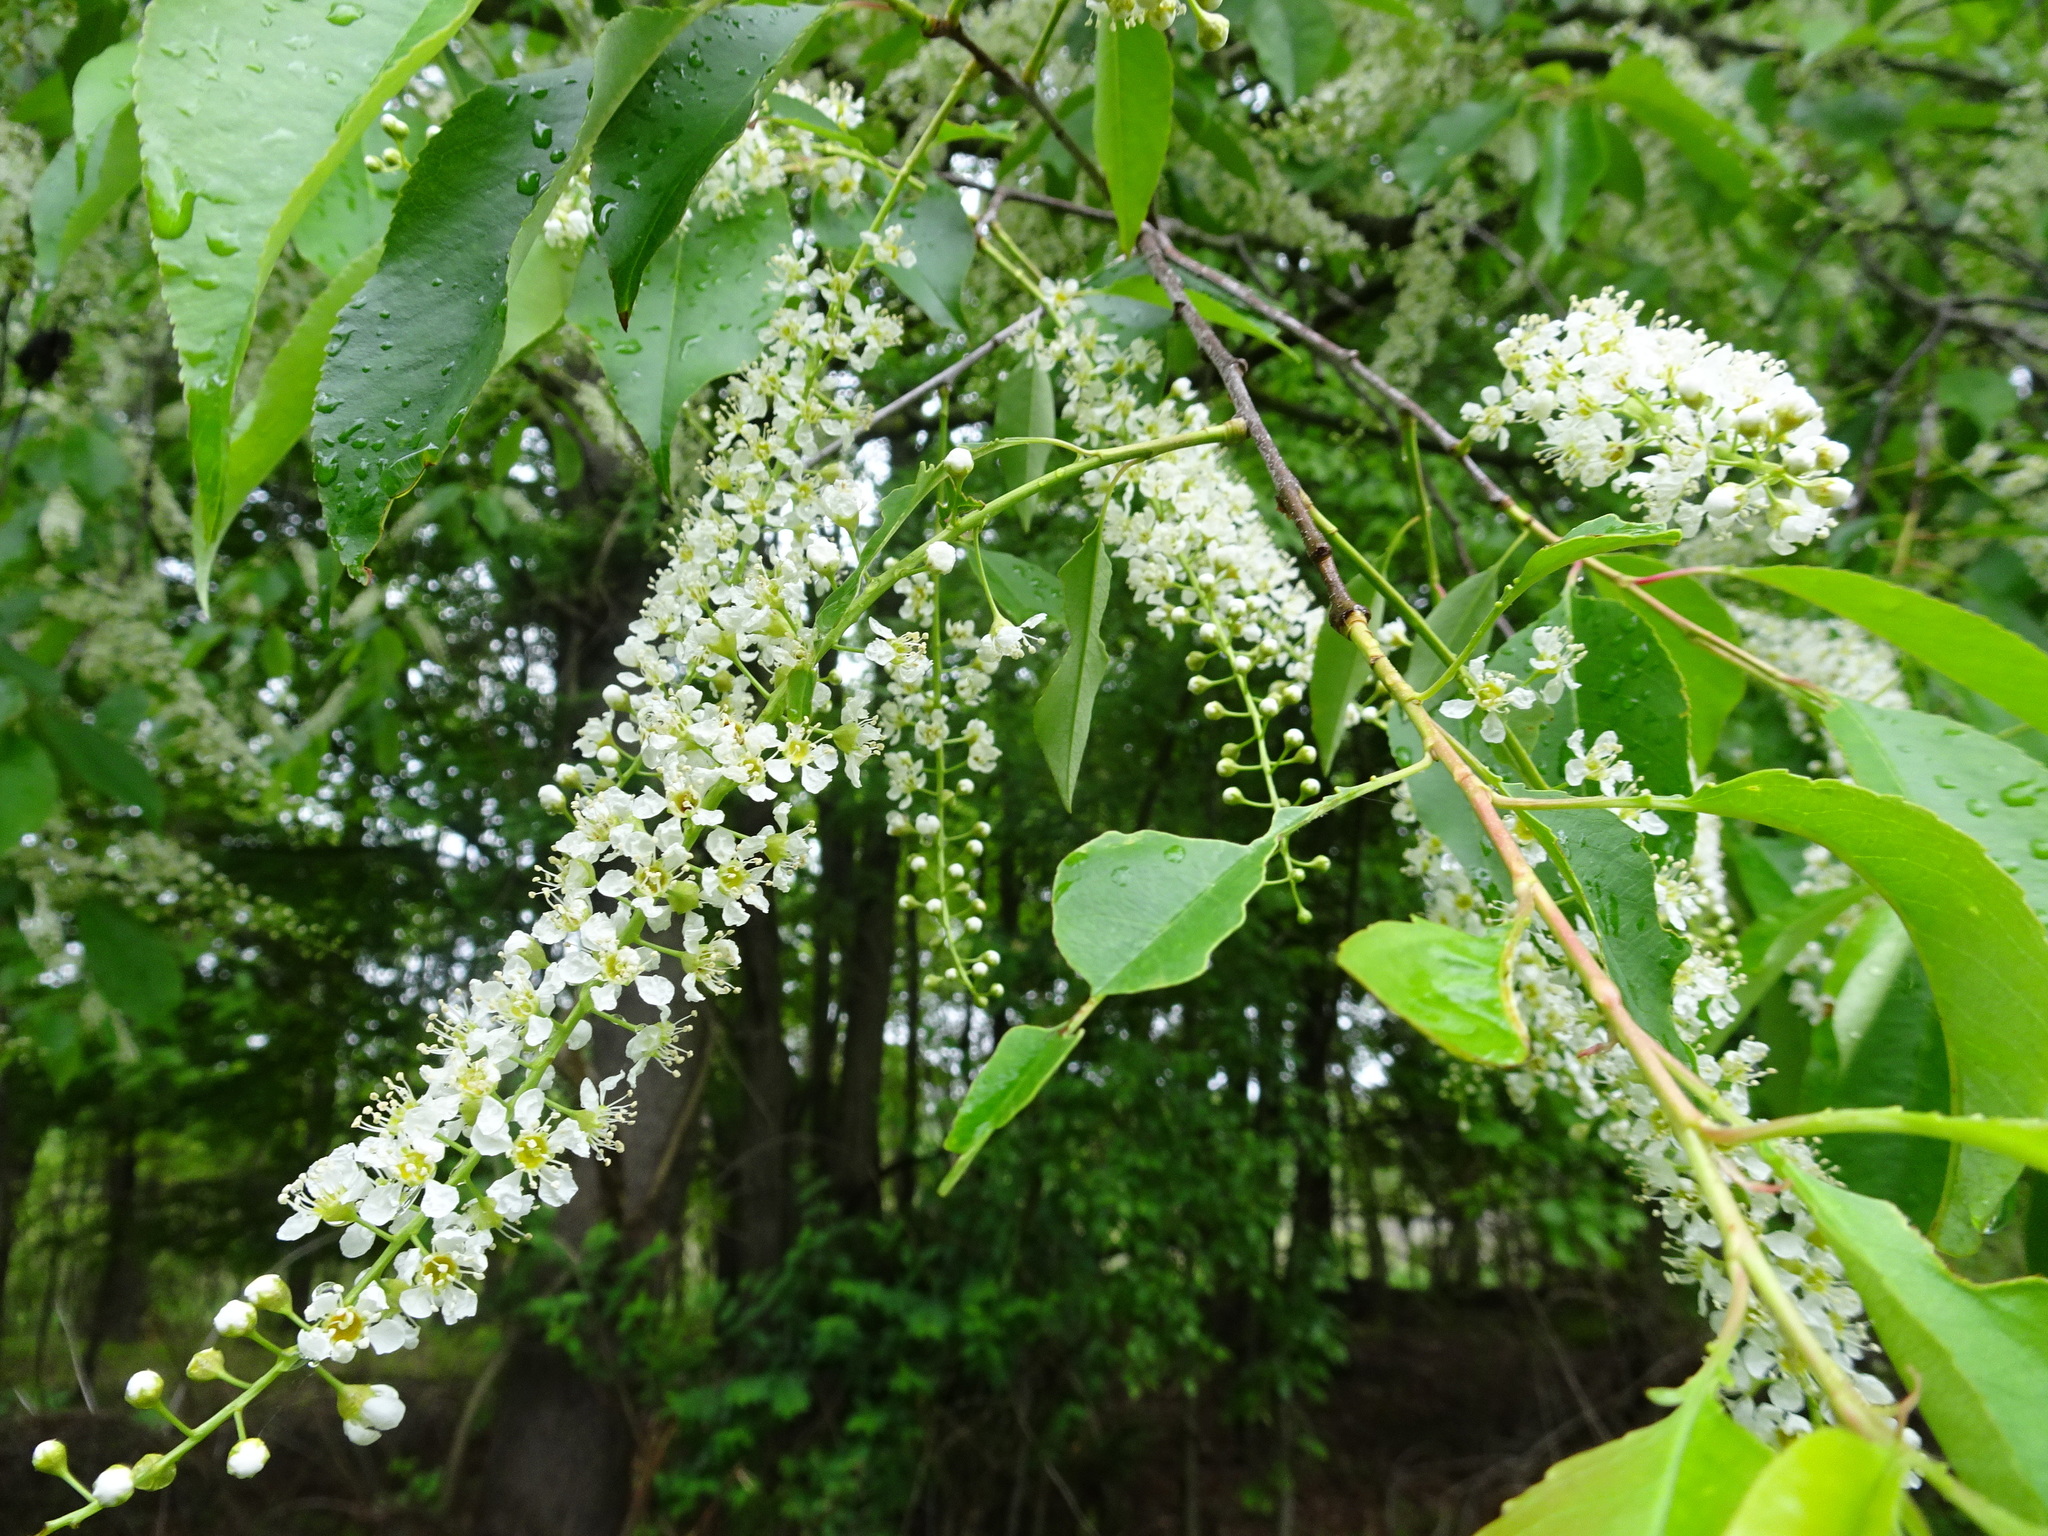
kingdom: Plantae
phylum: Tracheophyta
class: Magnoliopsida
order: Rosales
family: Rosaceae
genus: Prunus
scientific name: Prunus serotina
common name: Black cherry
